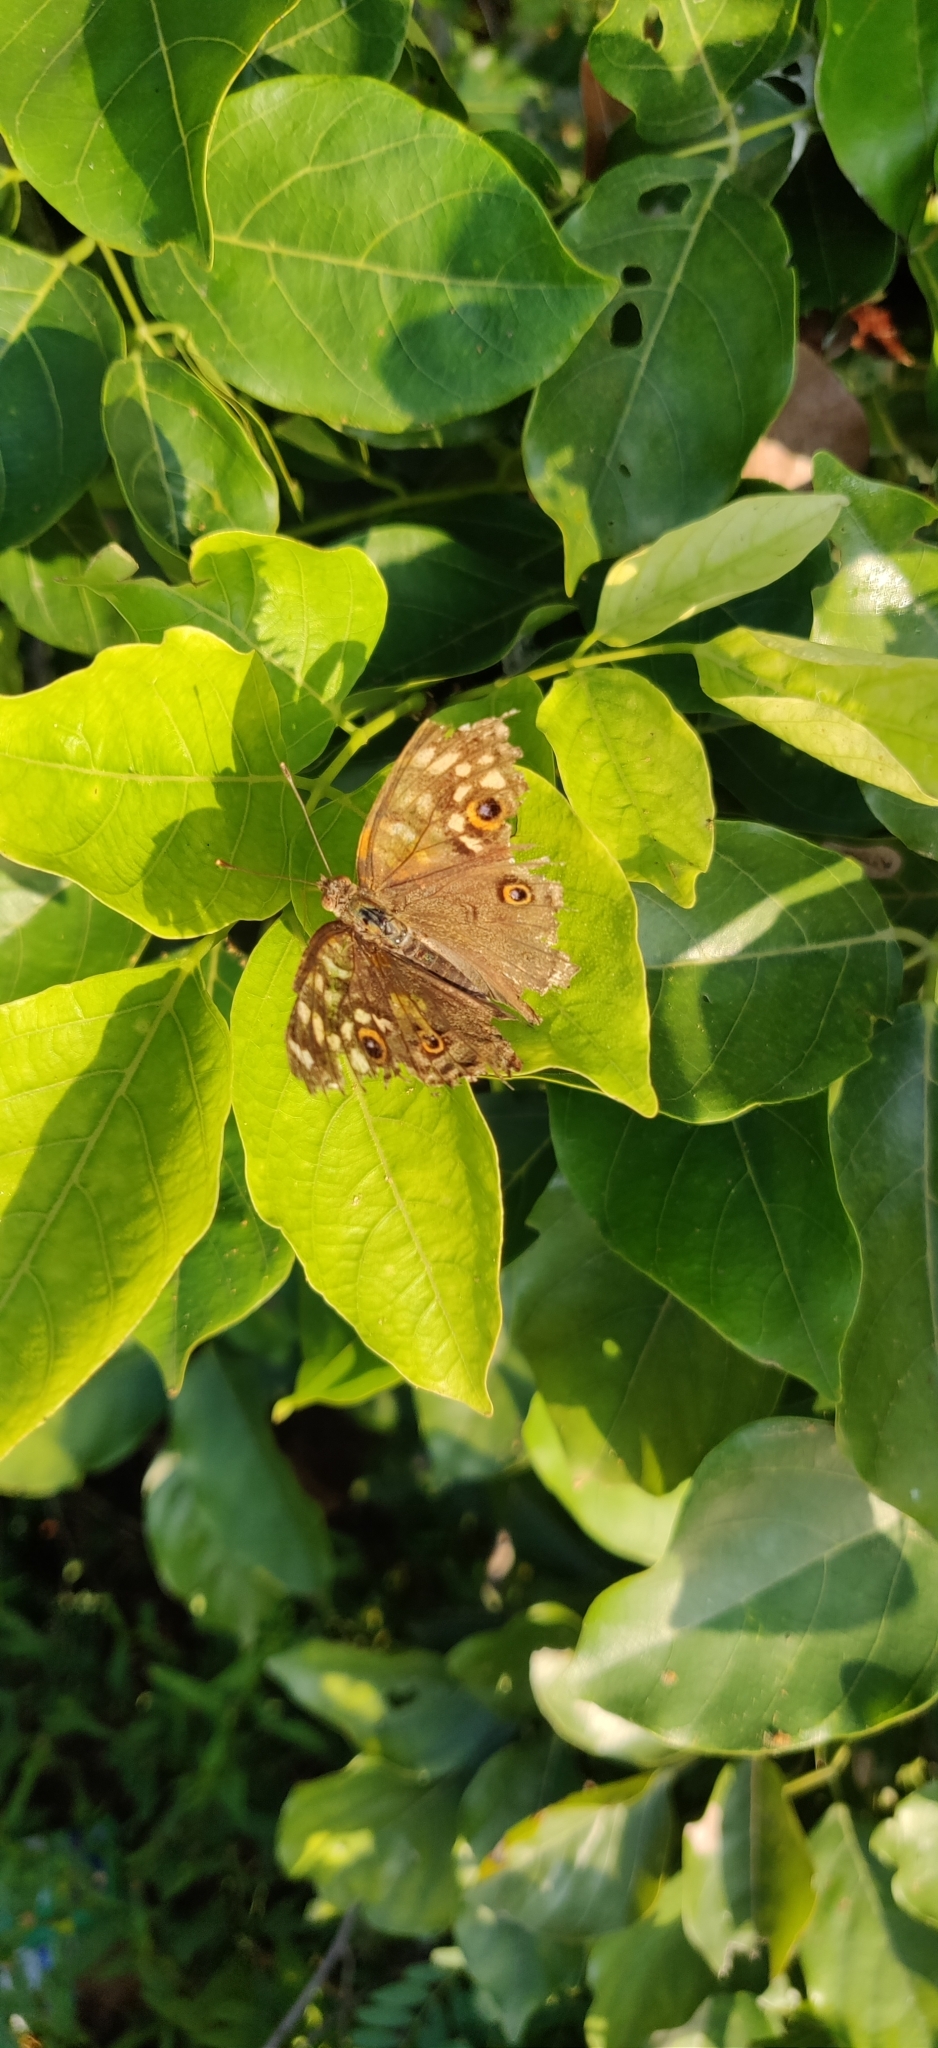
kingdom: Animalia
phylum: Arthropoda
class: Insecta
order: Lepidoptera
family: Nymphalidae
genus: Junonia
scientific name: Junonia lemonias
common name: Lemon pansy
